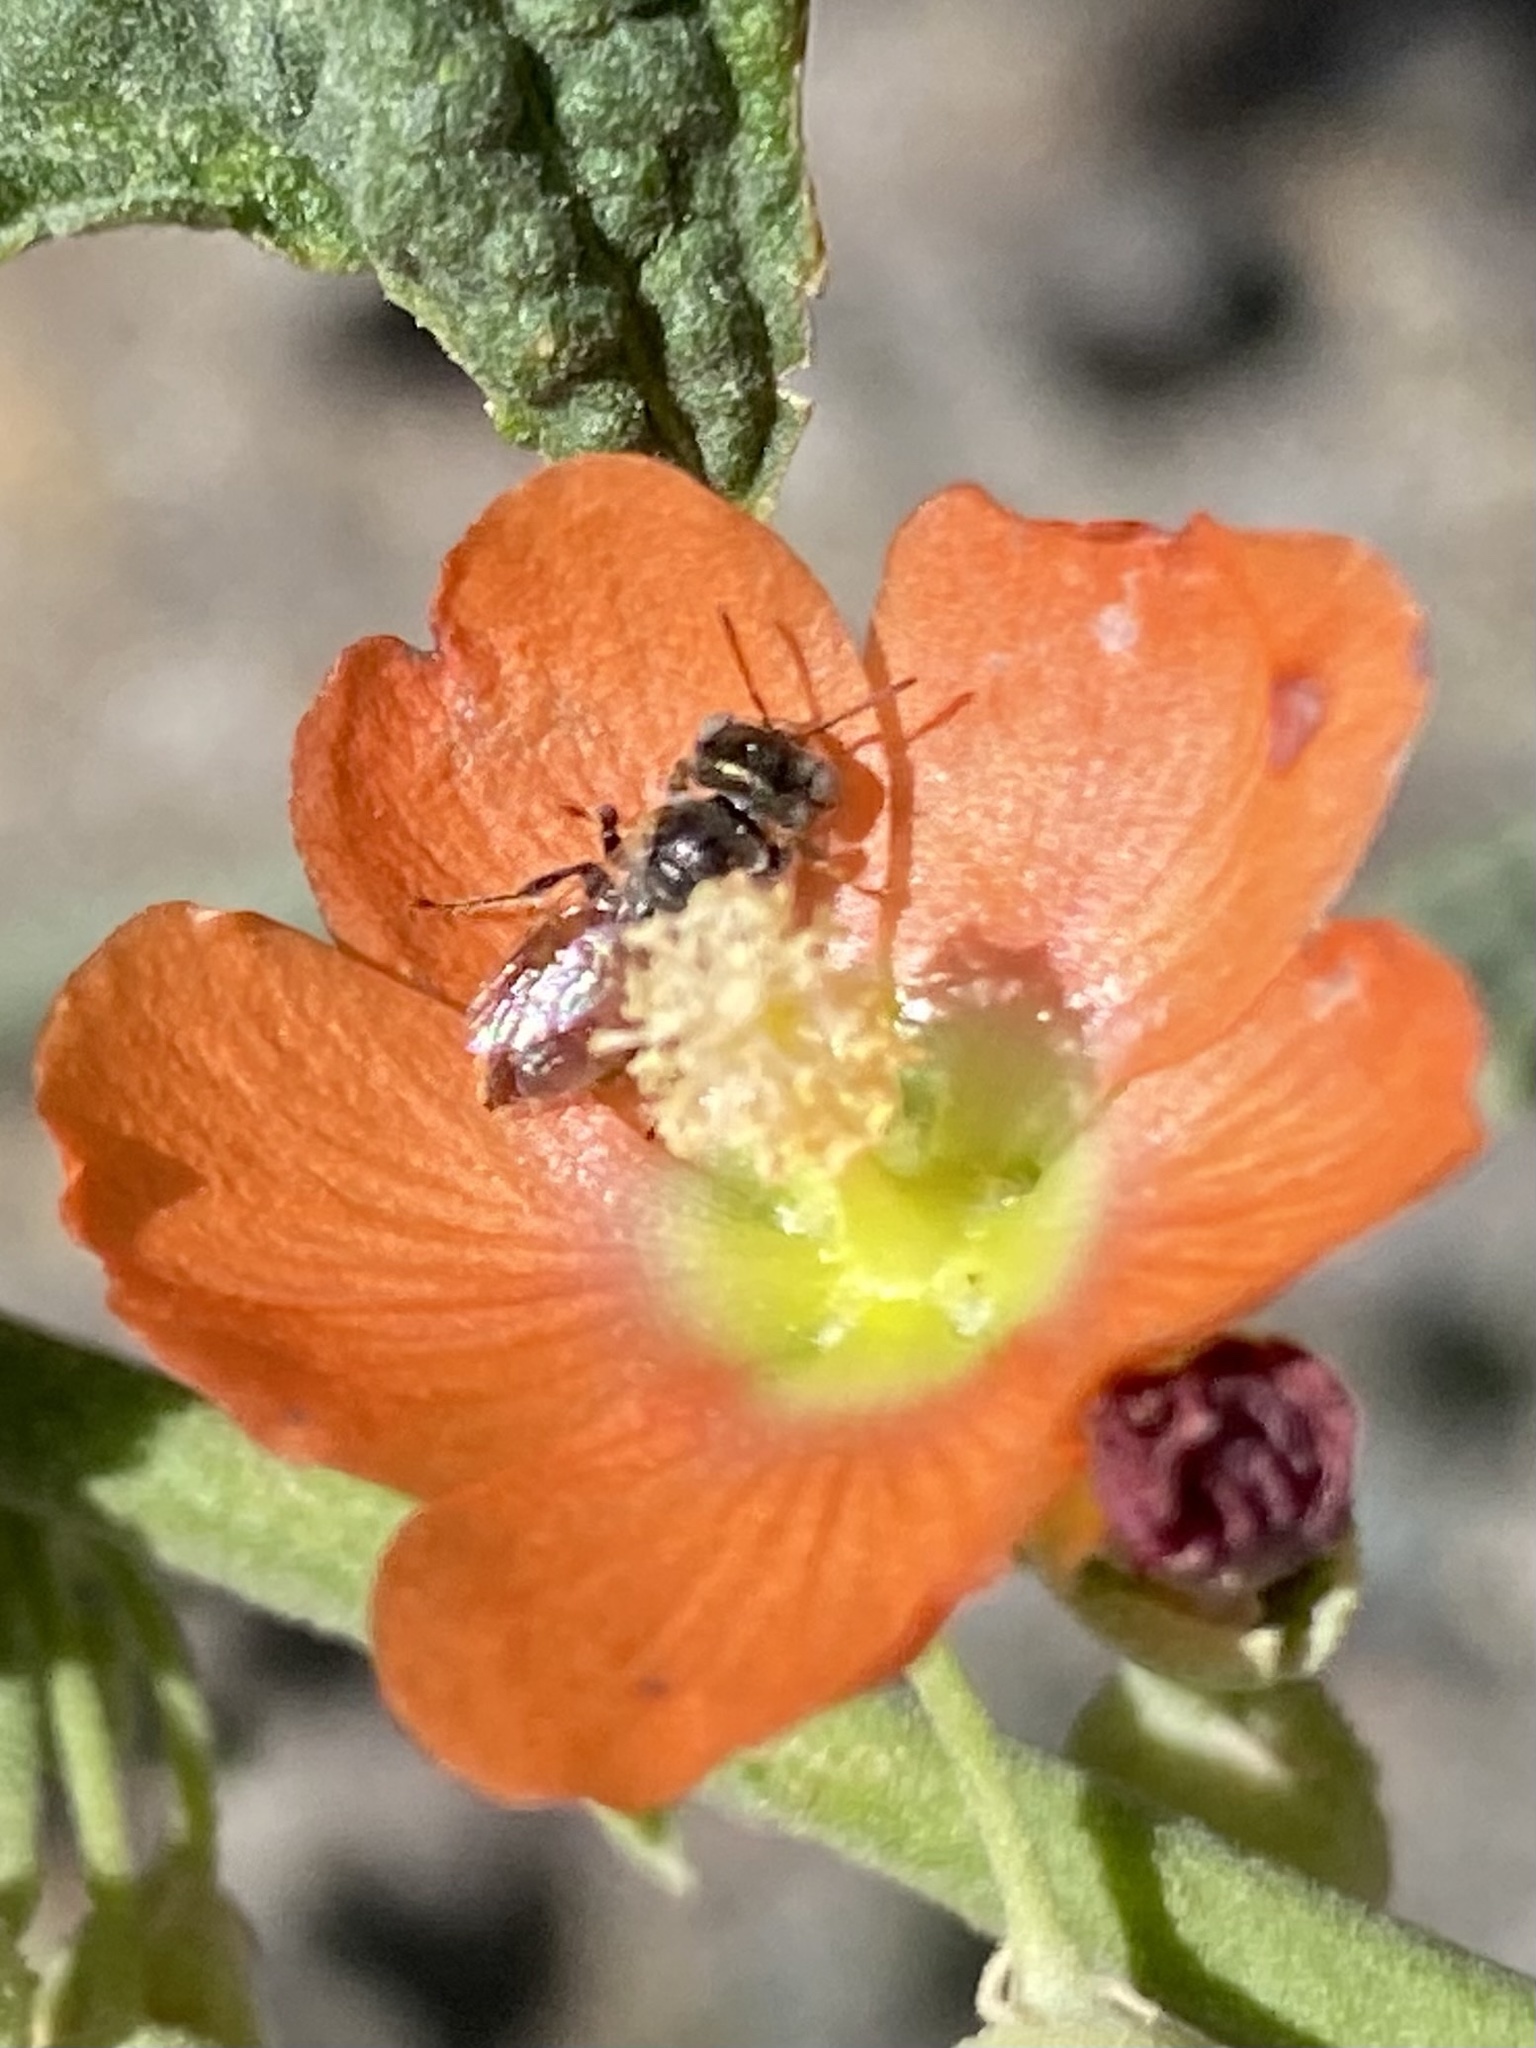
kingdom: Plantae
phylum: Tracheophyta
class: Magnoliopsida
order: Malvales
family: Malvaceae
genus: Sphaeralcea
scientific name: Sphaeralcea incana
